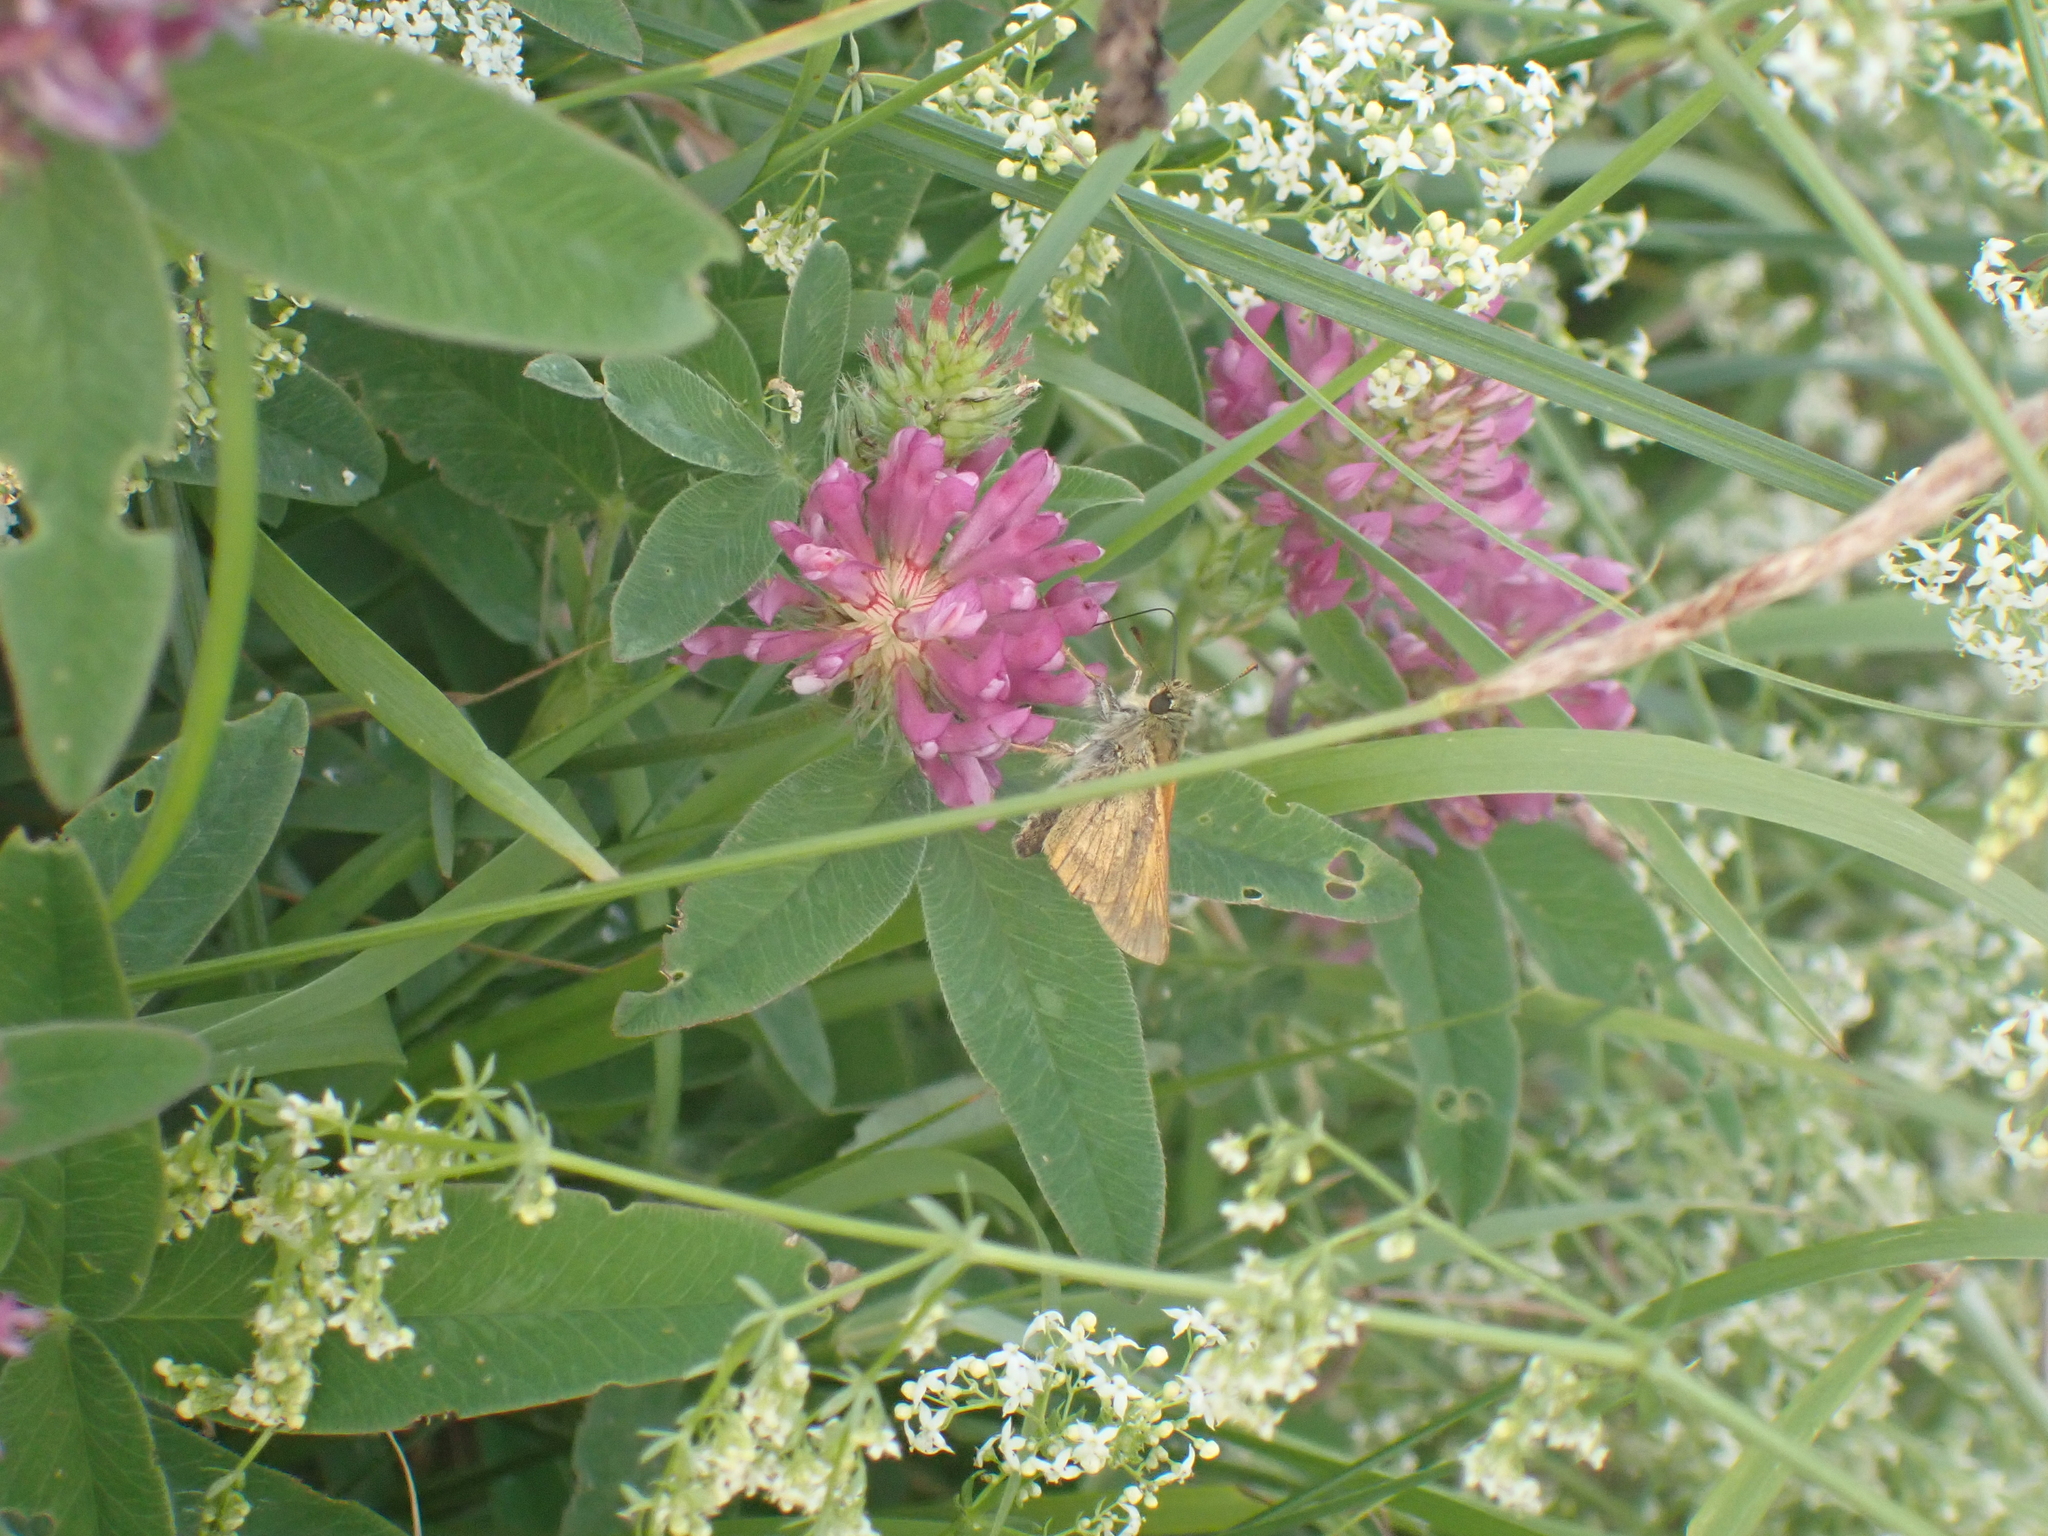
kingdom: Animalia
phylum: Arthropoda
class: Insecta
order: Lepidoptera
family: Hesperiidae
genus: Ochlodes
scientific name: Ochlodes venata
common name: Large skipper
